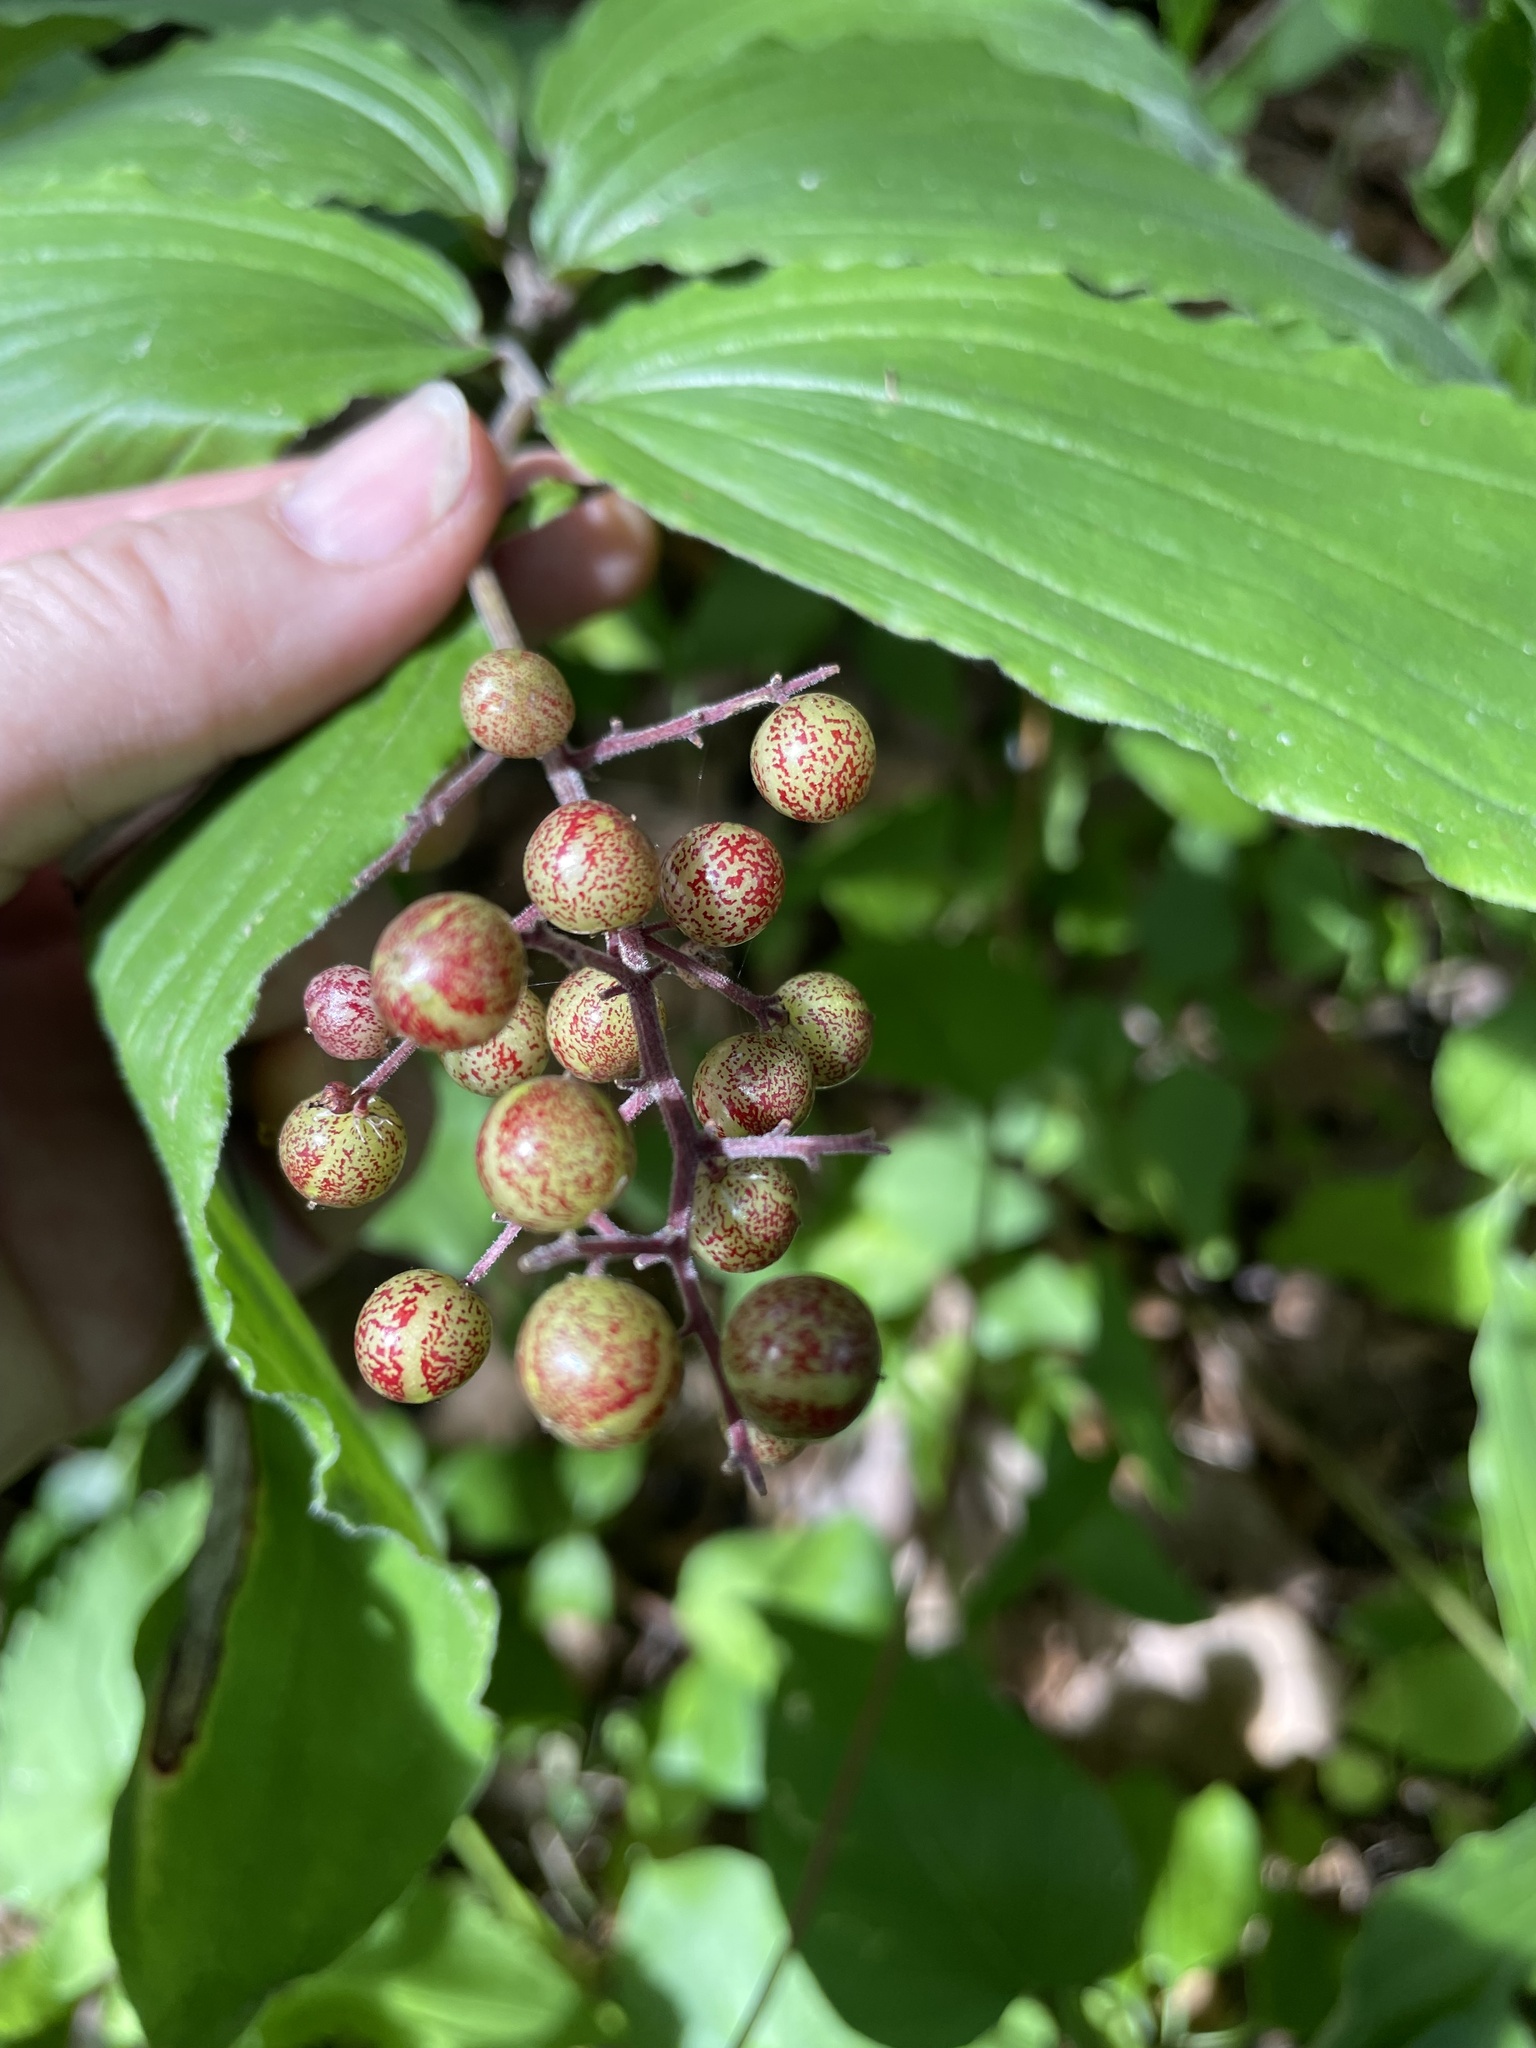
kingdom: Plantae
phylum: Tracheophyta
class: Liliopsida
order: Asparagales
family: Asparagaceae
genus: Maianthemum
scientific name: Maianthemum racemosum
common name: False spikenard
